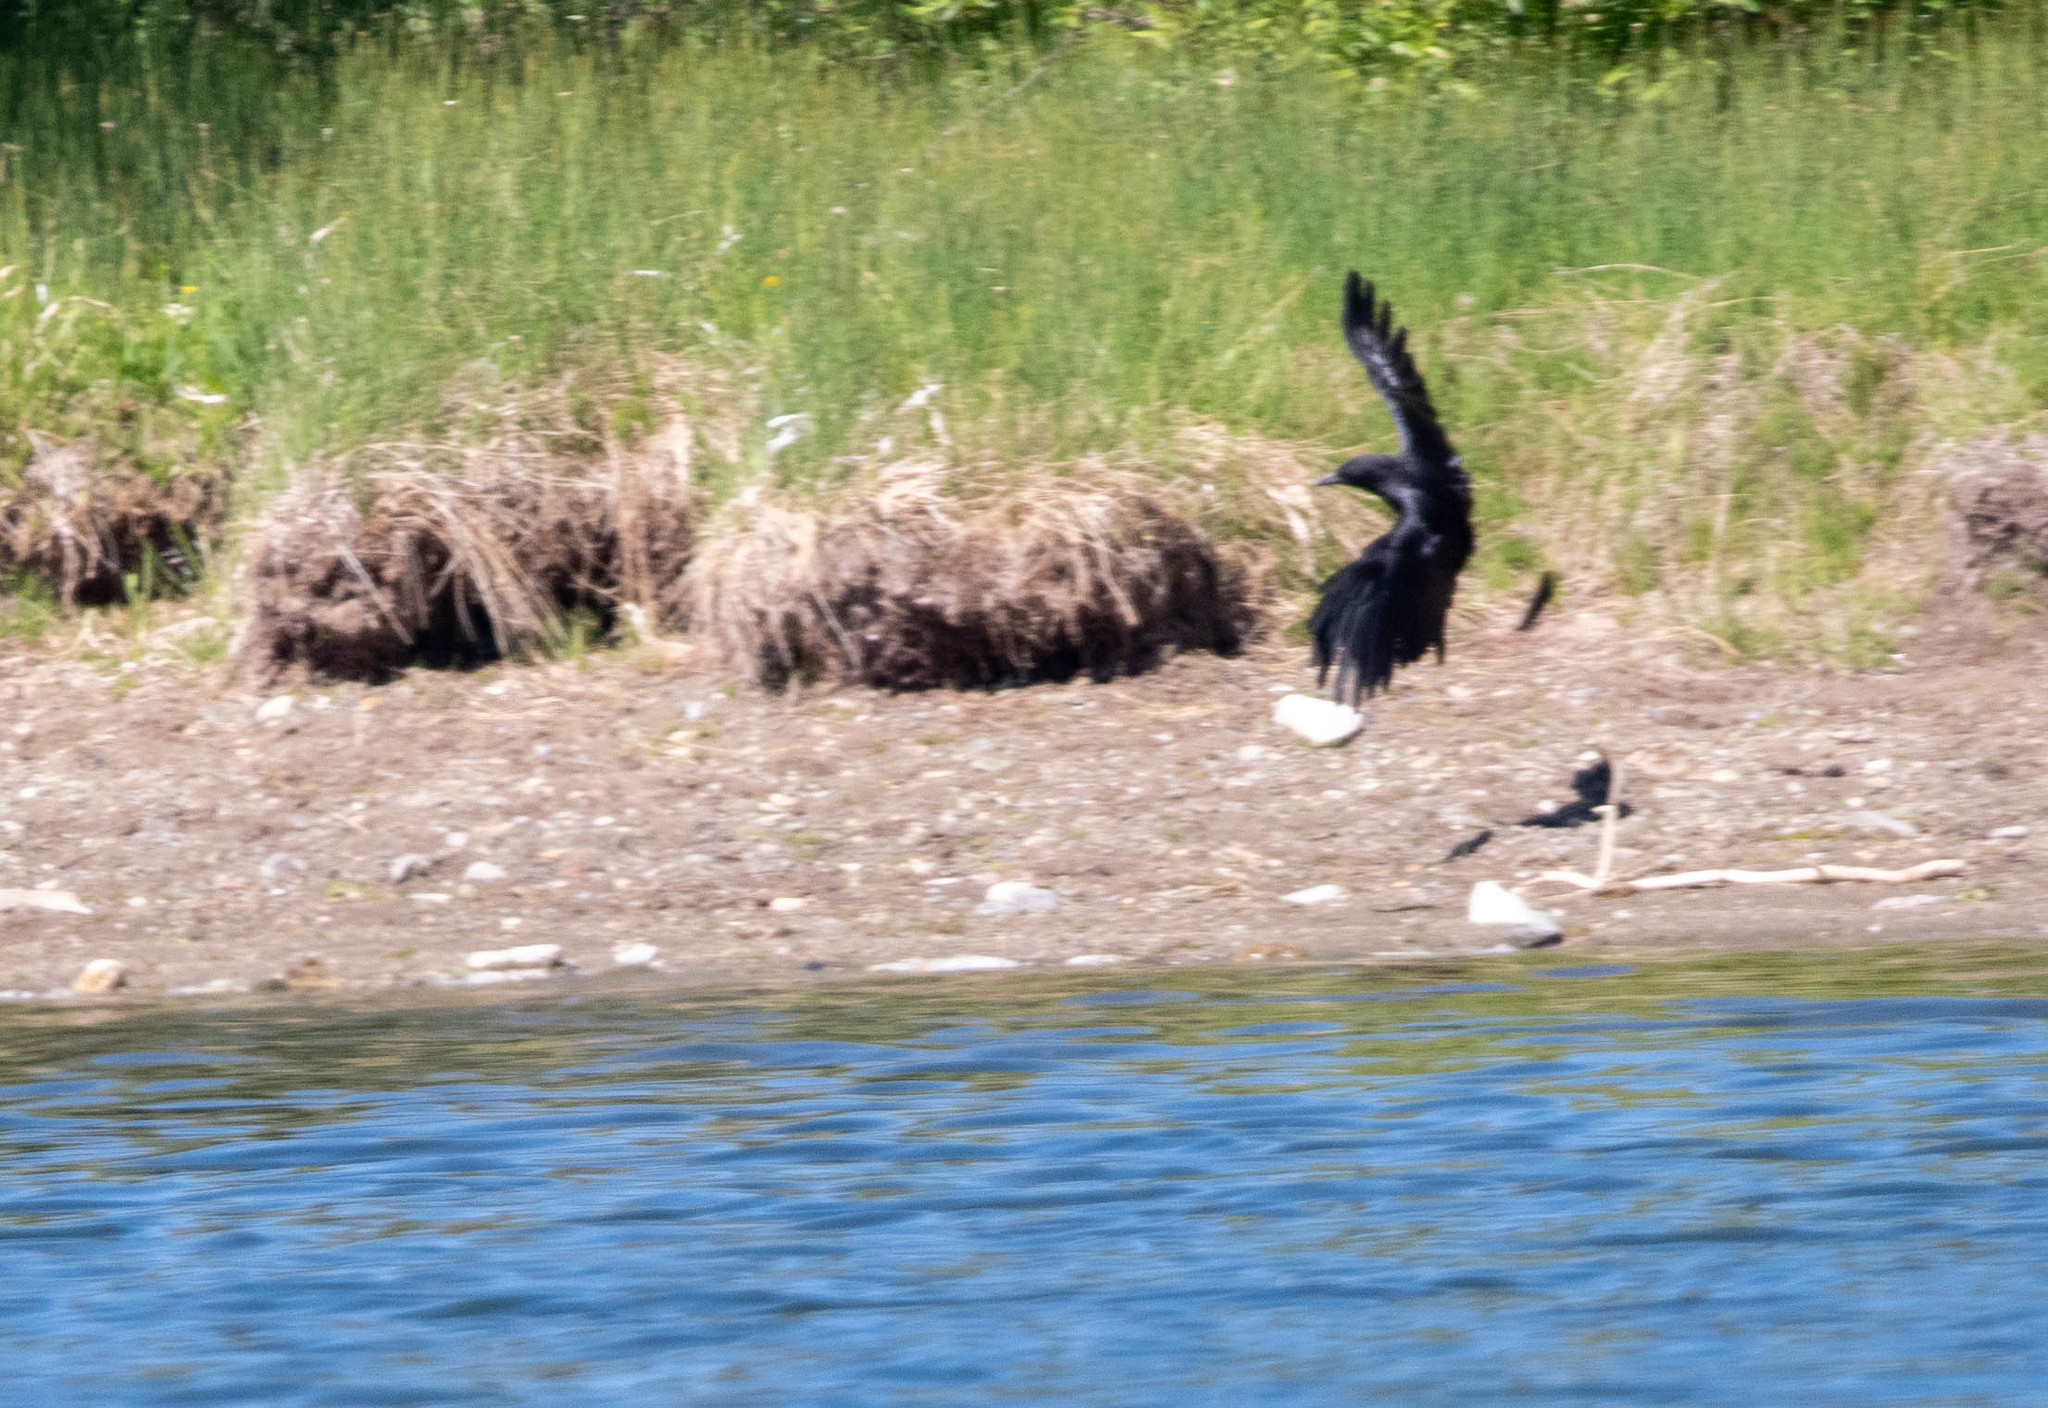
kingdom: Animalia
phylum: Chordata
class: Aves
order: Passeriformes
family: Corvidae
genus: Corvus
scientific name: Corvus brachyrhynchos
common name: American crow
